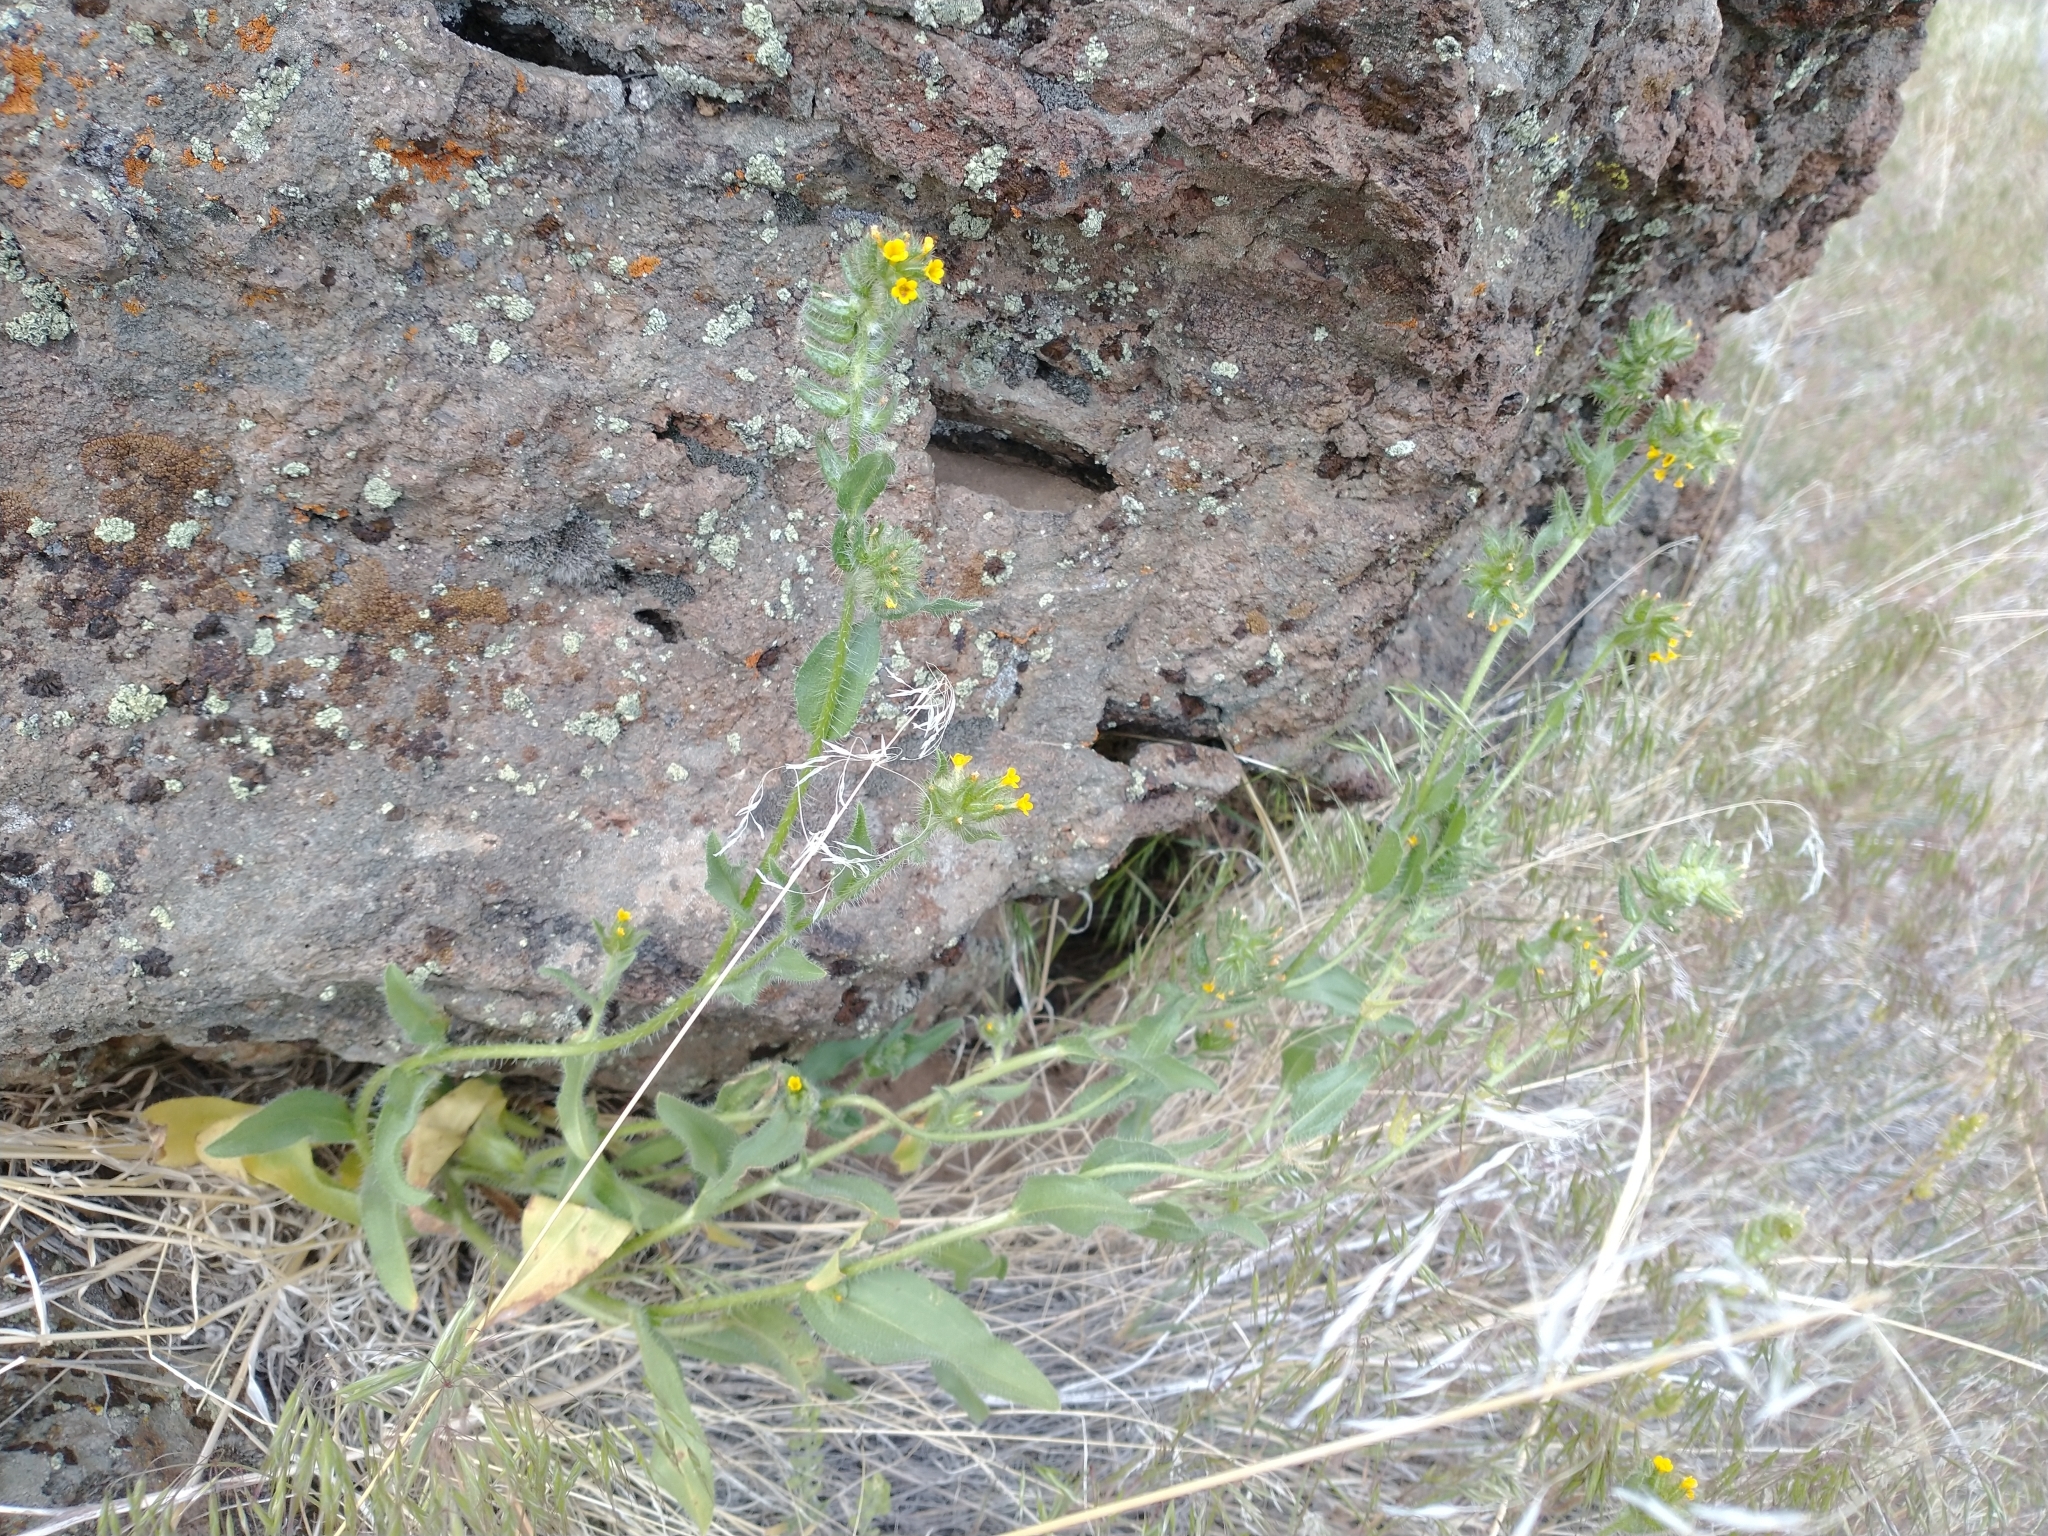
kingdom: Plantae
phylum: Tracheophyta
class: Magnoliopsida
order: Boraginales
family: Boraginaceae
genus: Amsinckia
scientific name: Amsinckia tessellata
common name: Tessellate fiddleneck
